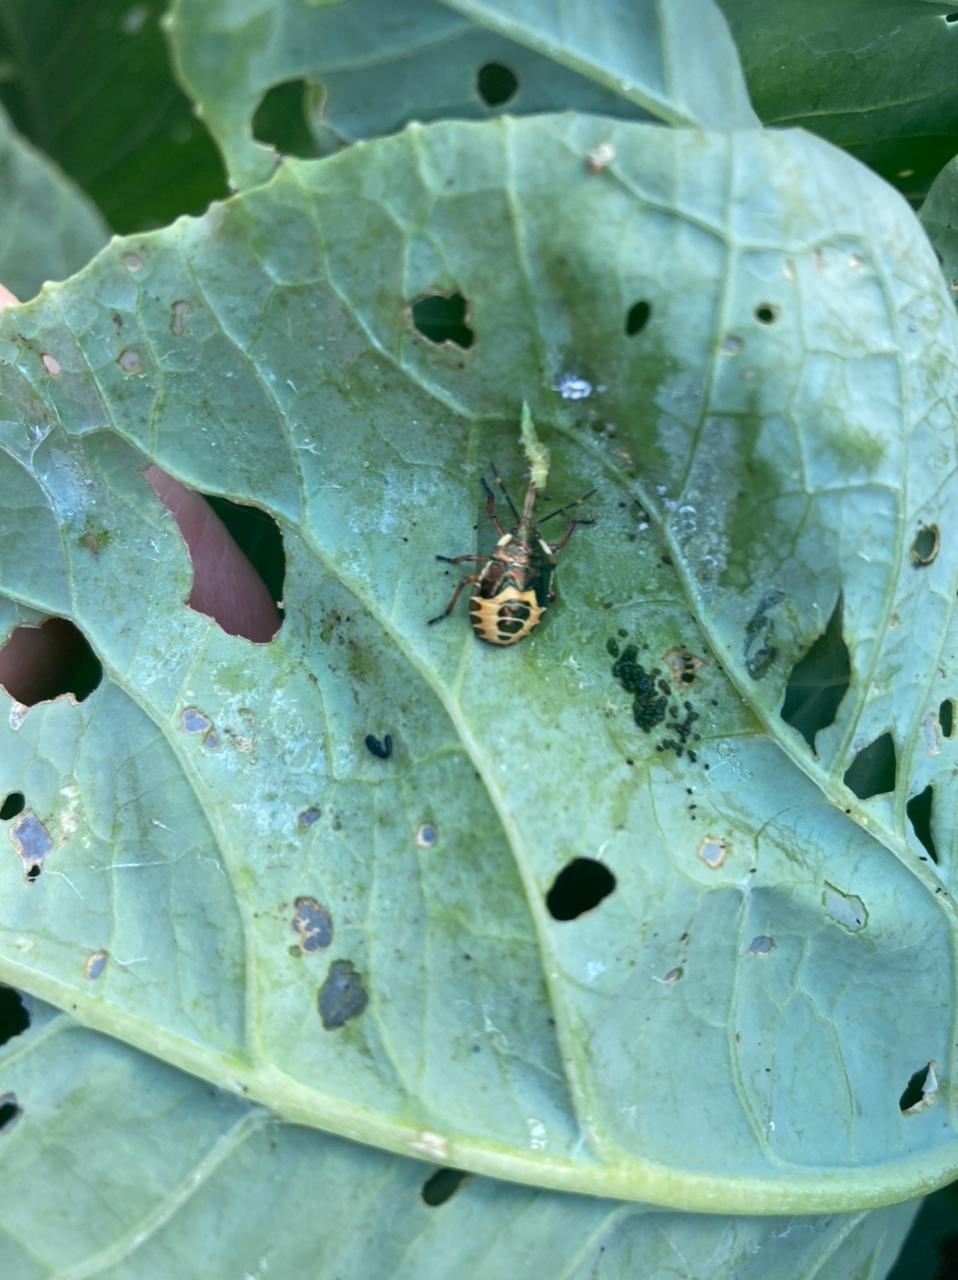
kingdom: Animalia
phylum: Arthropoda
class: Insecta
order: Hemiptera
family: Pentatomidae
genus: Troilus
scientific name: Troilus luridus
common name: Bronze shieldbug
